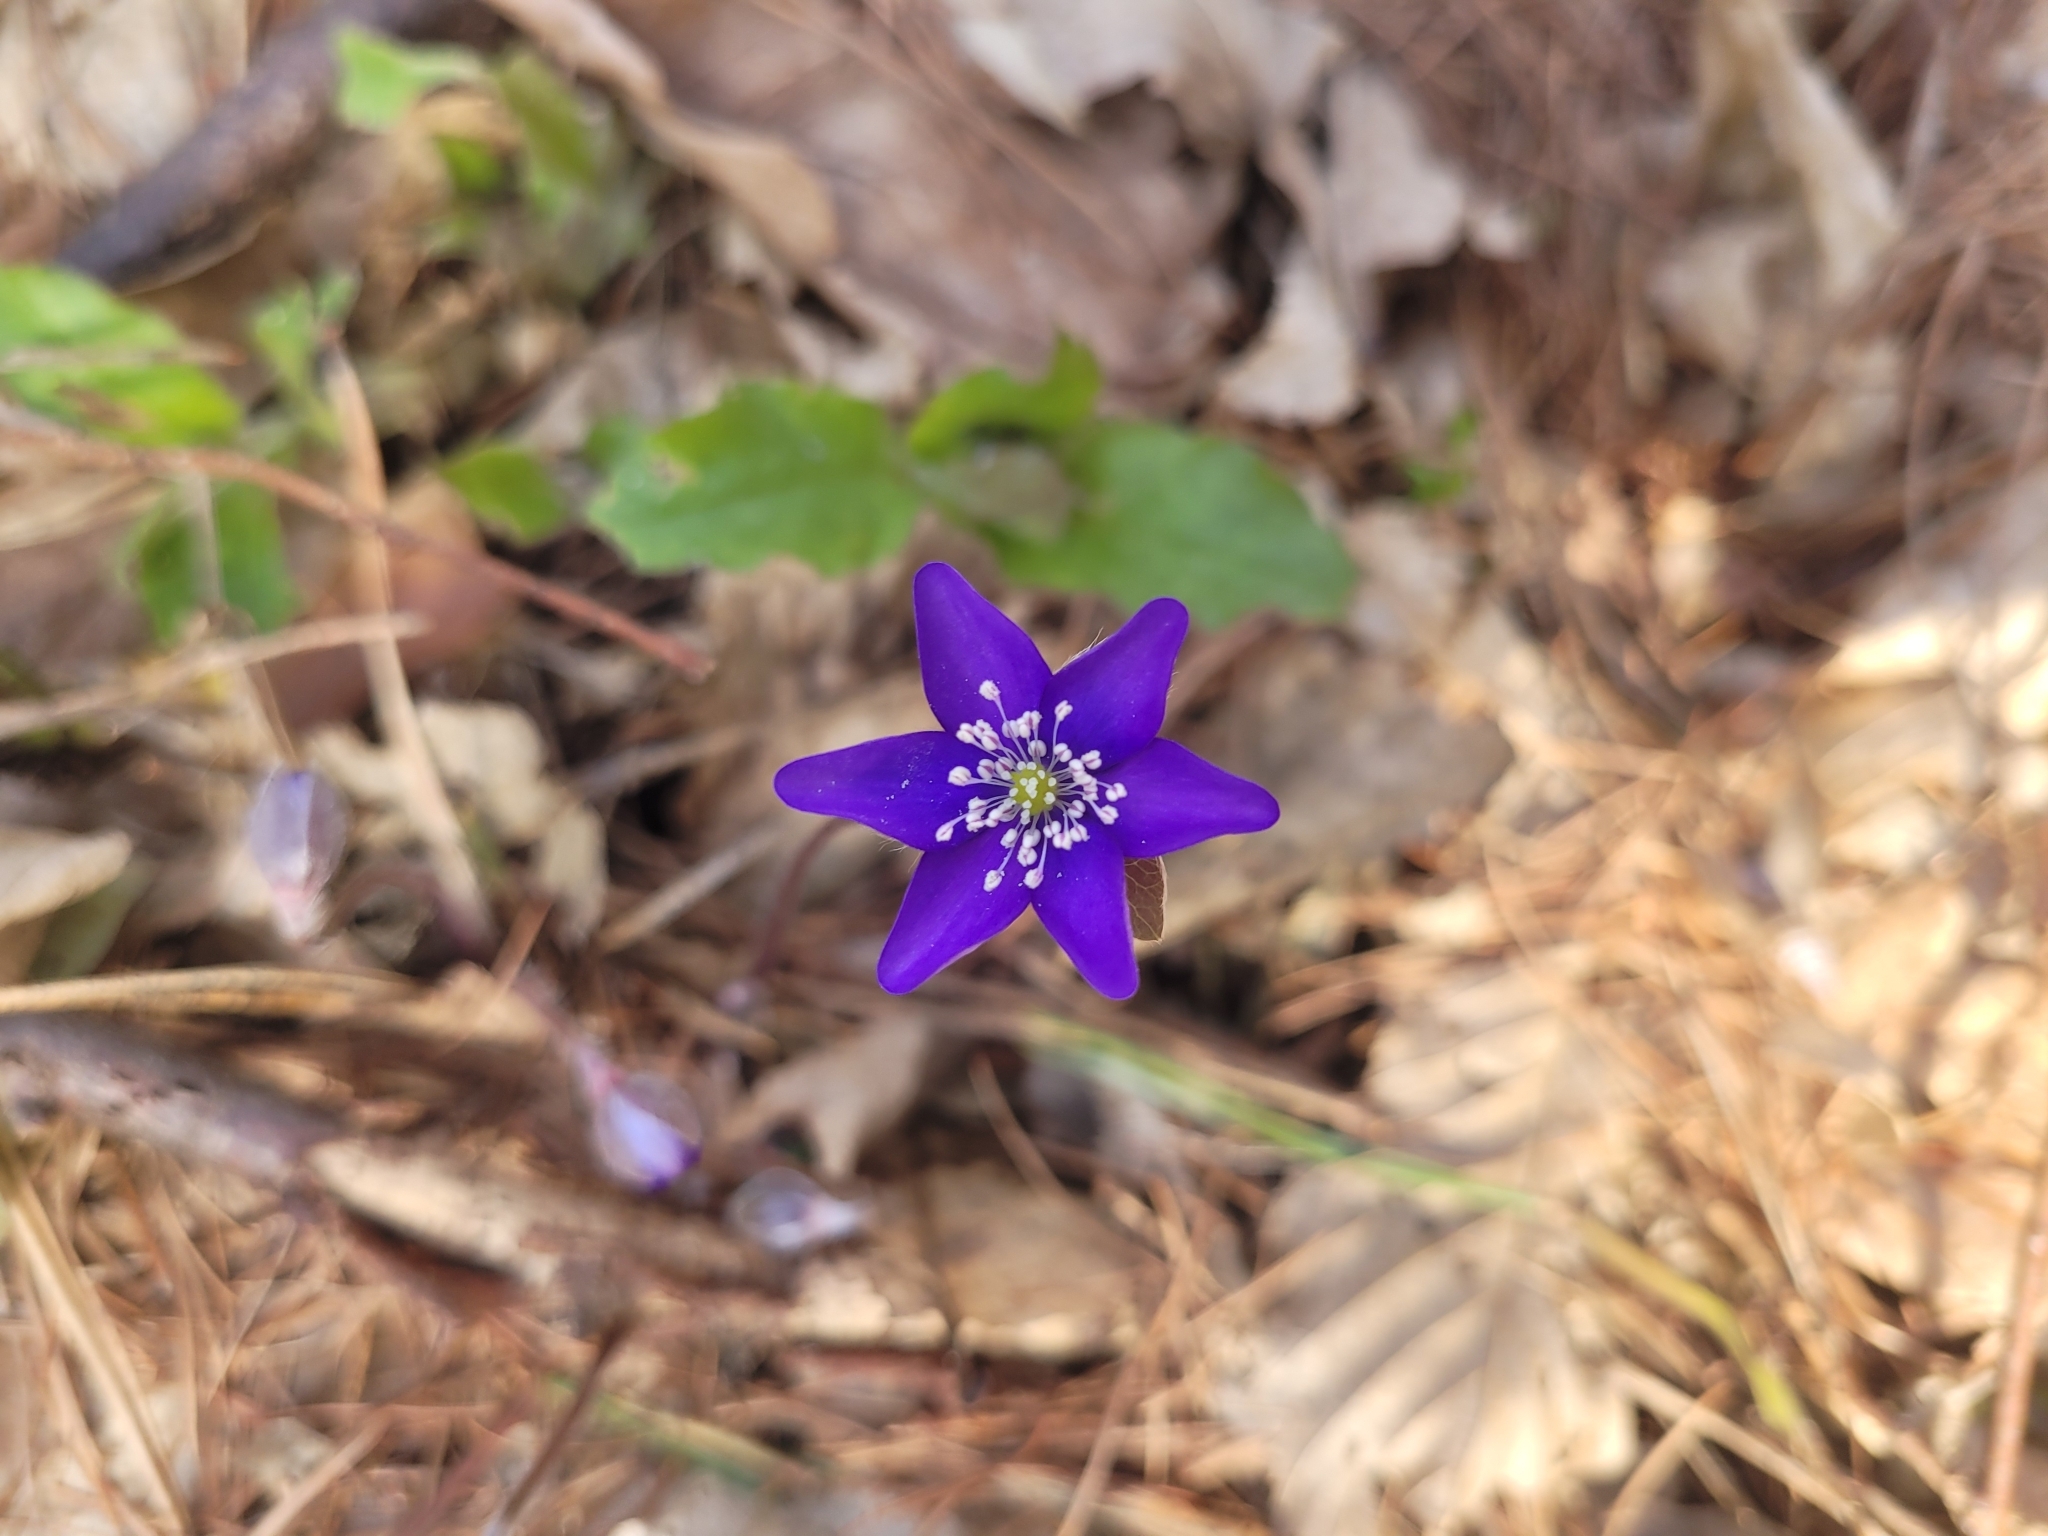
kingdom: Plantae
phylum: Tracheophyta
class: Magnoliopsida
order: Ranunculales
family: Ranunculaceae
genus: Hepatica
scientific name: Hepatica nobilis
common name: Liverleaf
